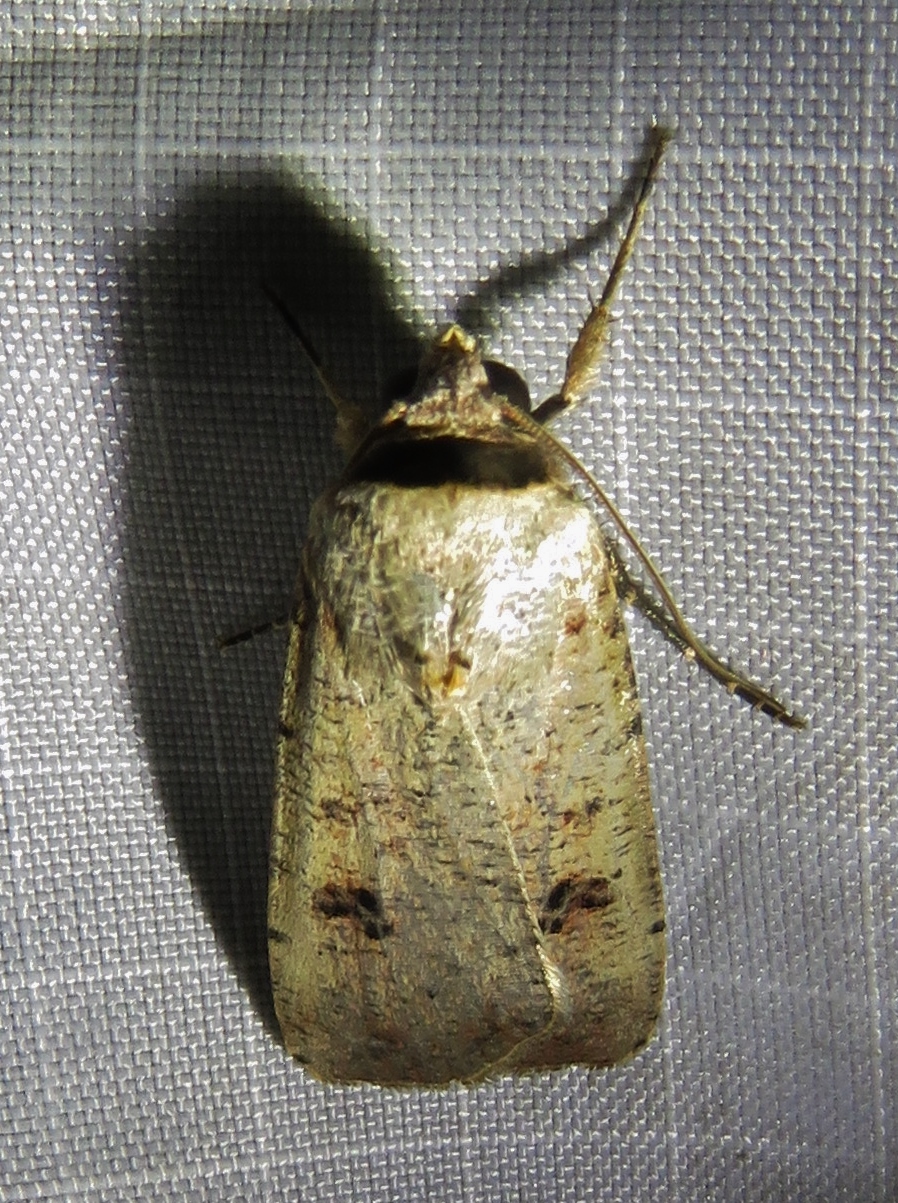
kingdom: Animalia
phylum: Arthropoda
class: Insecta
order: Lepidoptera
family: Noctuidae
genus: Anicla
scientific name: Anicla infecta
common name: Green cutworm
